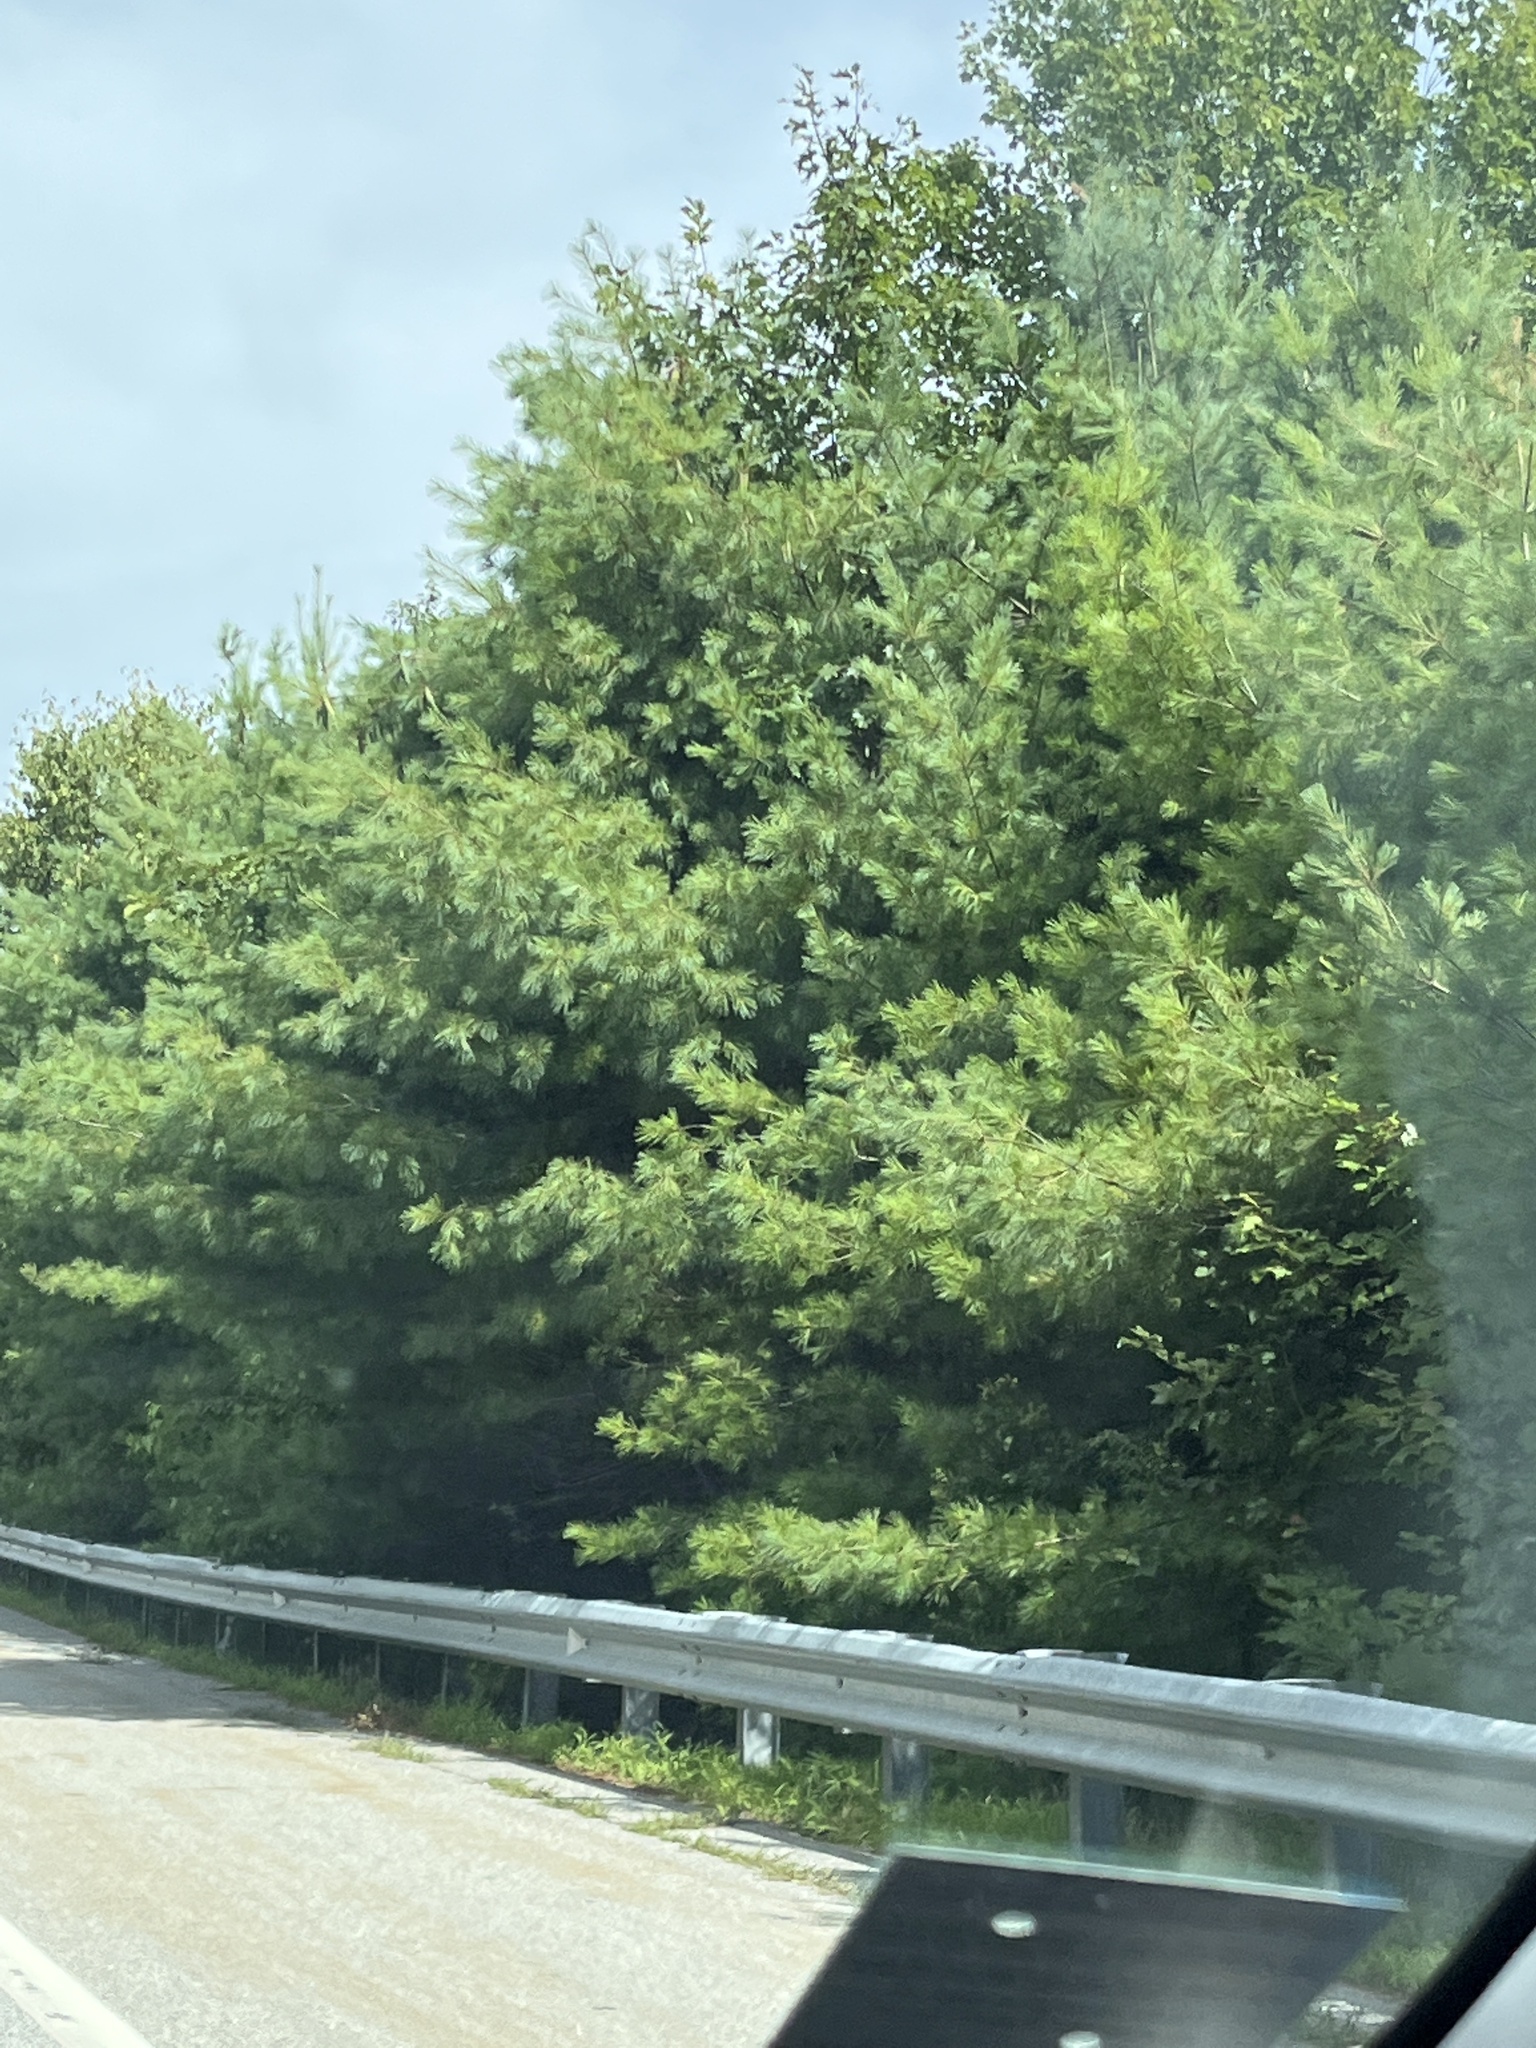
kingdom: Plantae
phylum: Tracheophyta
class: Pinopsida
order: Pinales
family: Pinaceae
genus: Pinus
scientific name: Pinus strobus
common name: Weymouth pine
